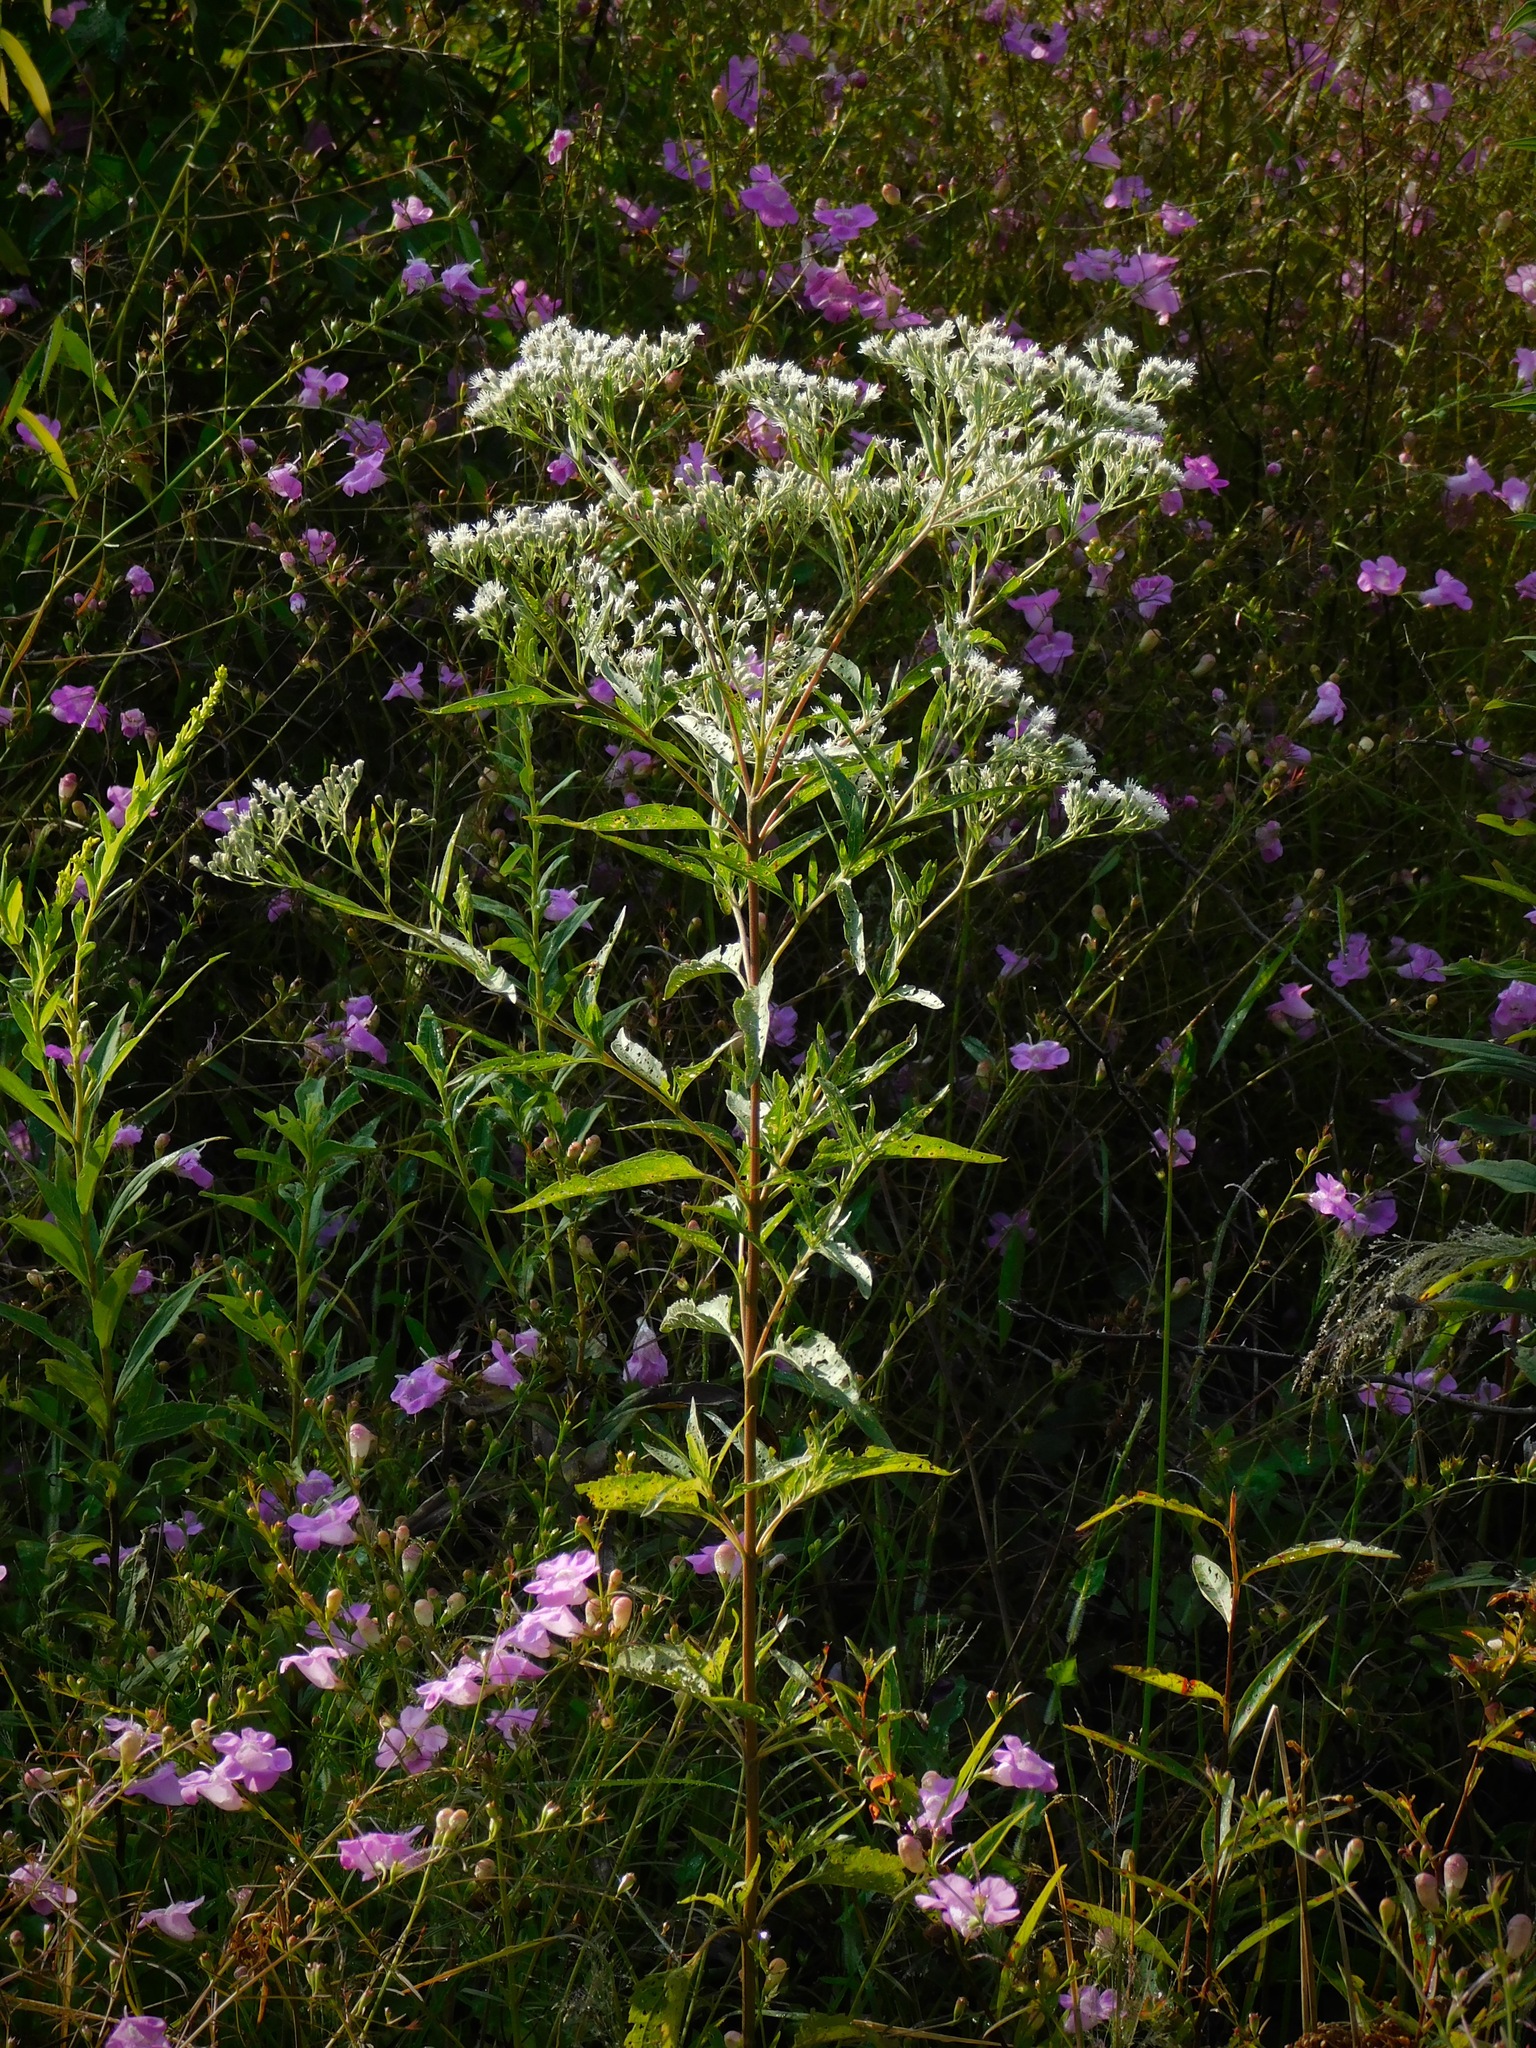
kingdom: Plantae
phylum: Tracheophyta
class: Magnoliopsida
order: Asterales
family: Asteraceae
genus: Eupatorium
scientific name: Eupatorium serotinum
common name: Late boneset
